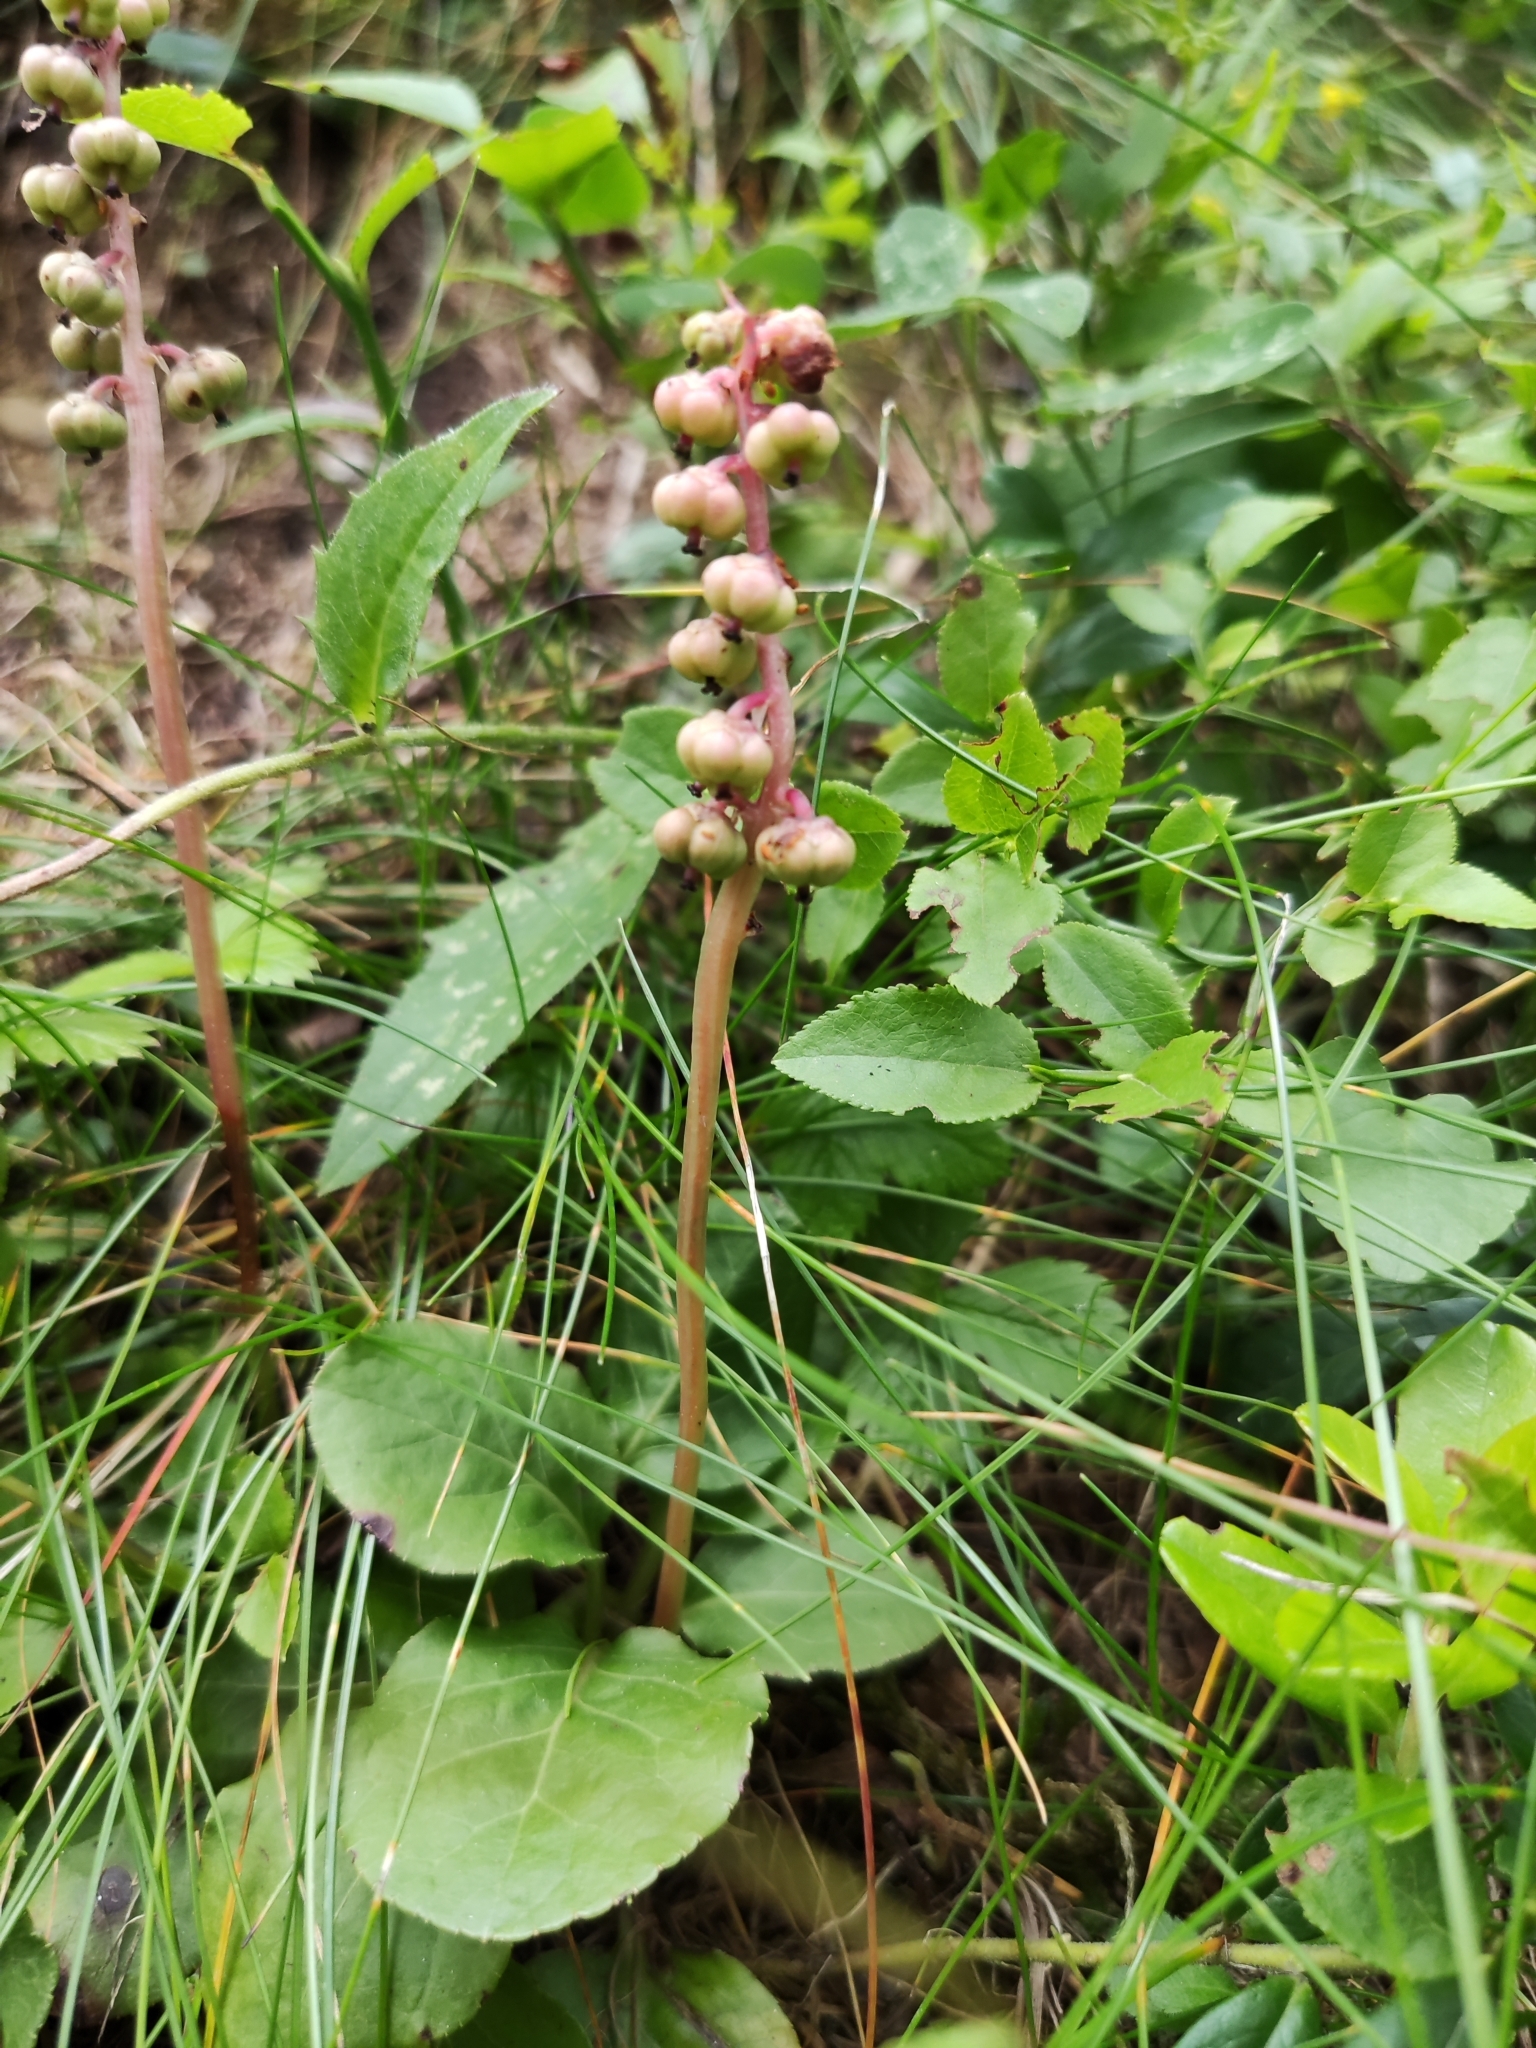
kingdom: Plantae
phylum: Tracheophyta
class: Magnoliopsida
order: Ericales
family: Ericaceae
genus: Pyrola
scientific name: Pyrola minor
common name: Common wintergreen
